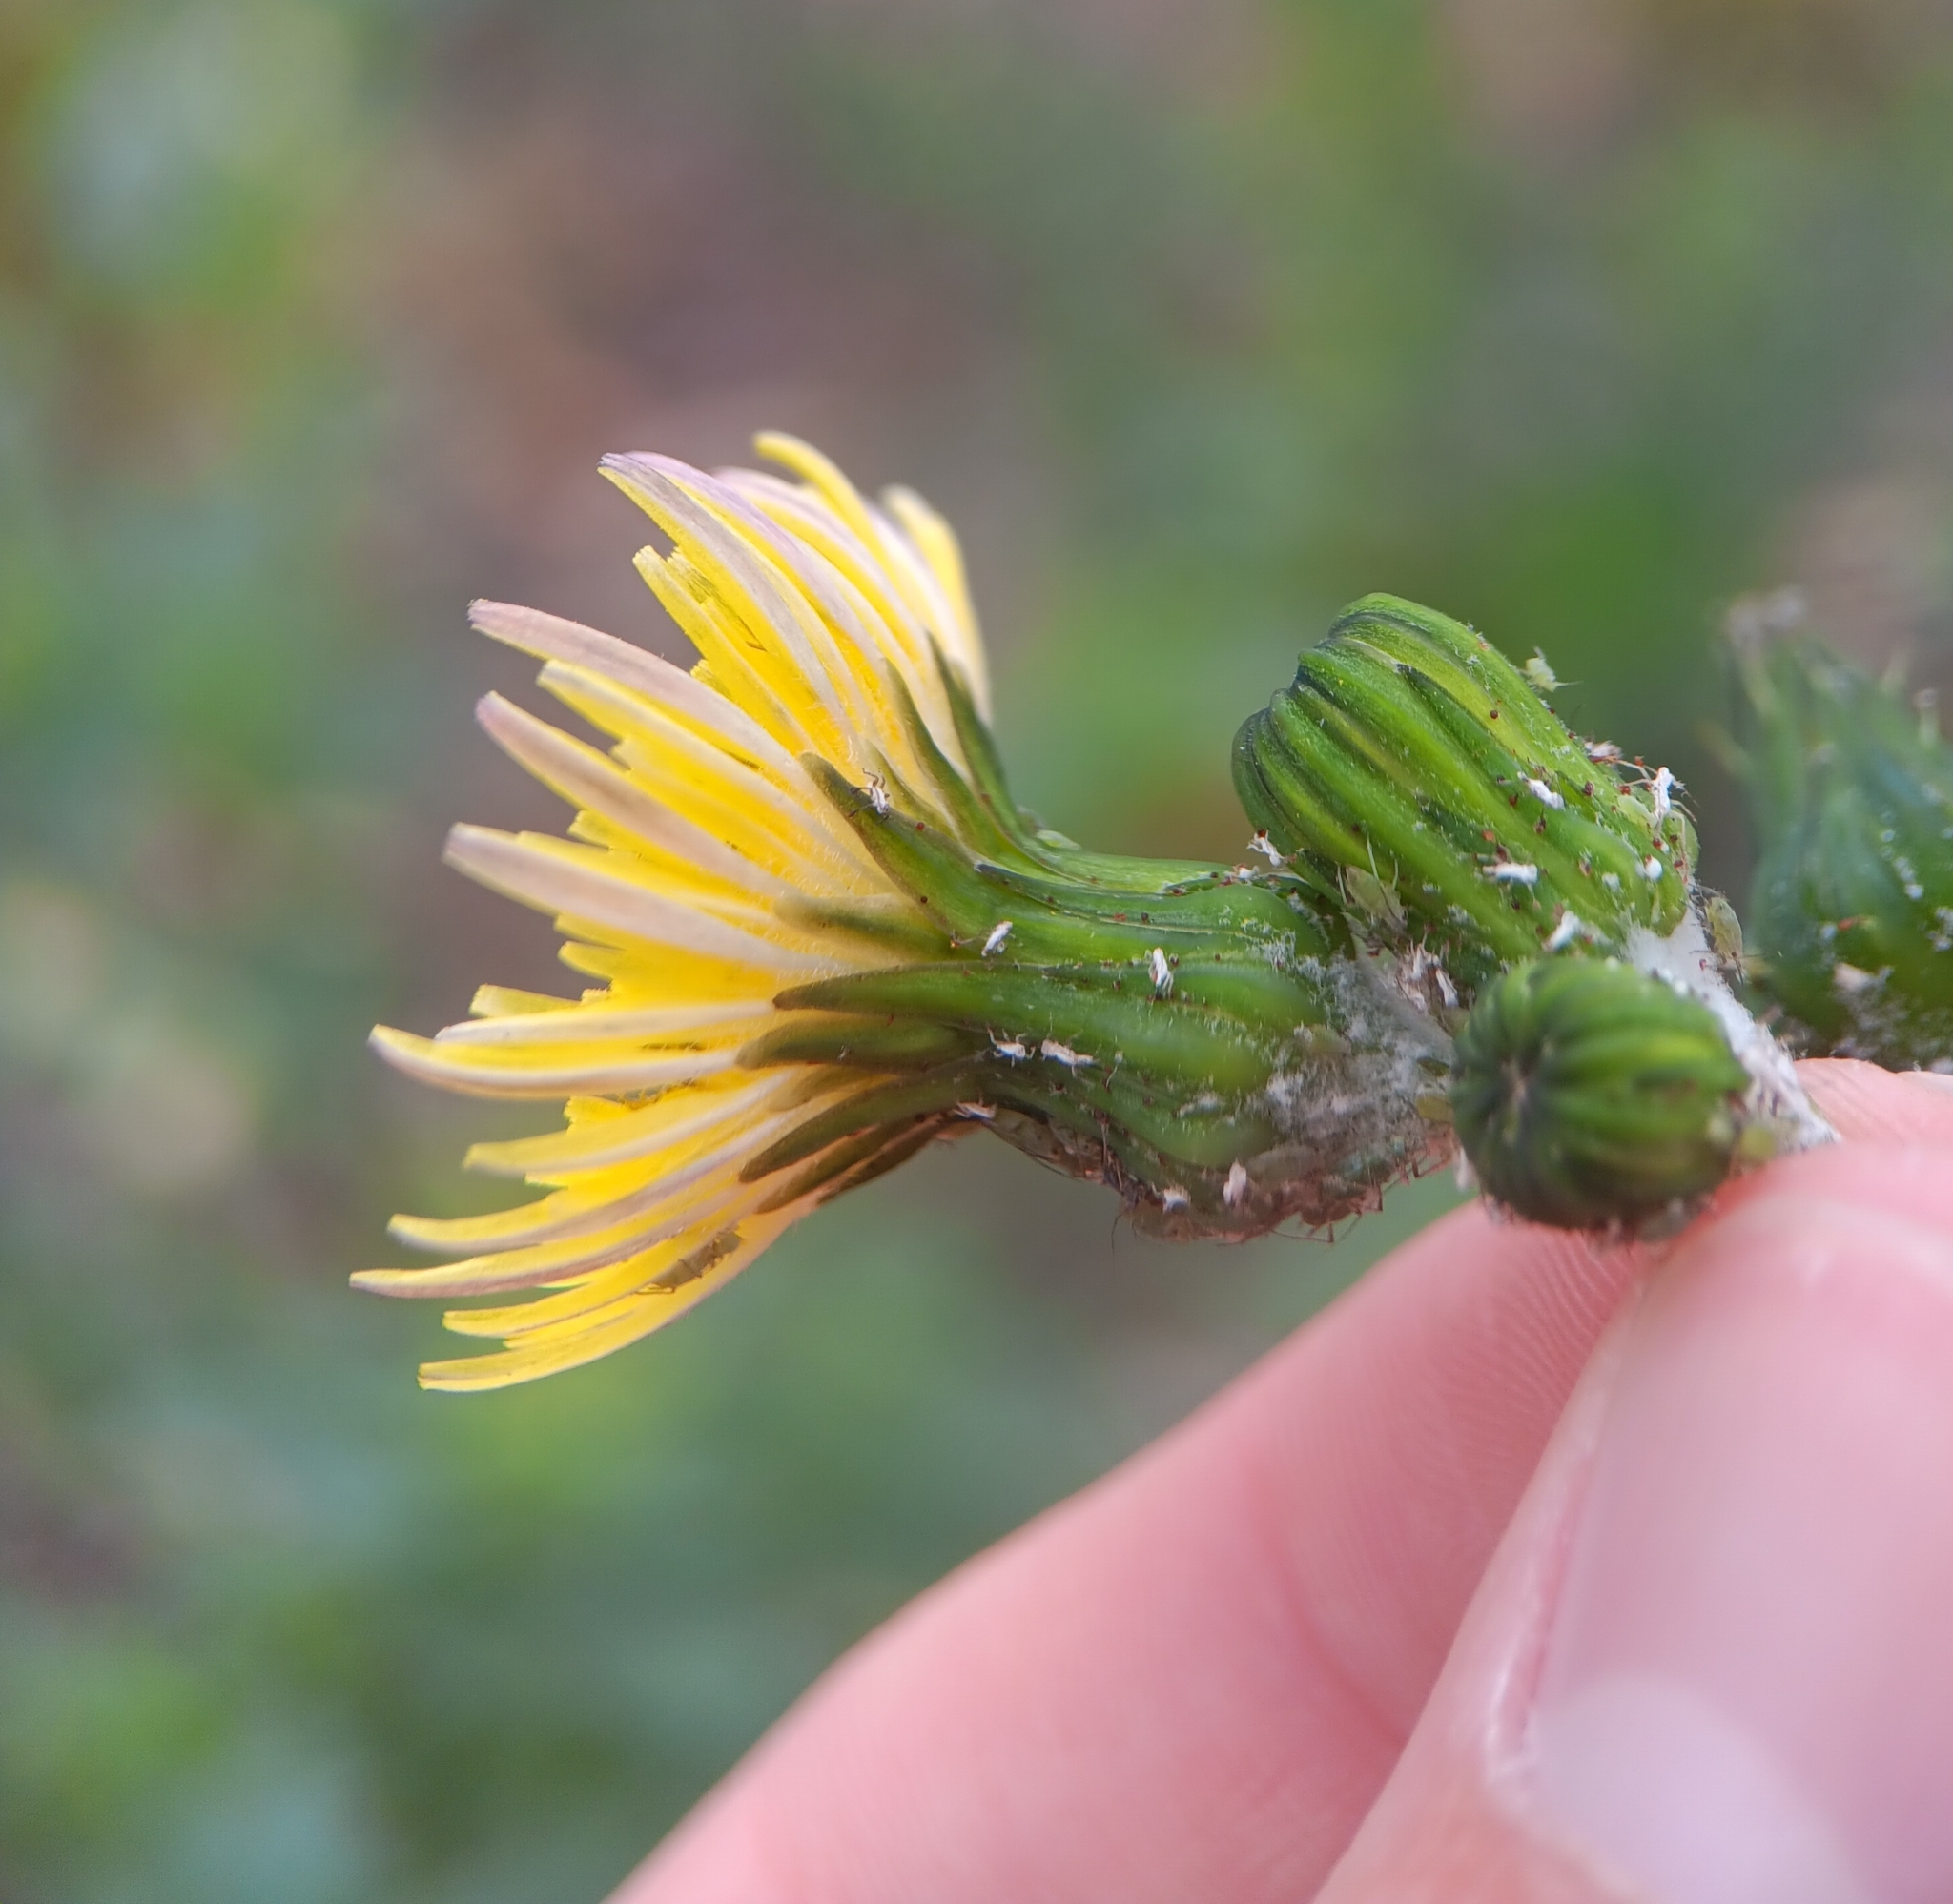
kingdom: Plantae
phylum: Tracheophyta
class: Magnoliopsida
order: Asterales
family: Asteraceae
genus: Sonchus
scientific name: Sonchus oleraceus
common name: Common sowthistle
